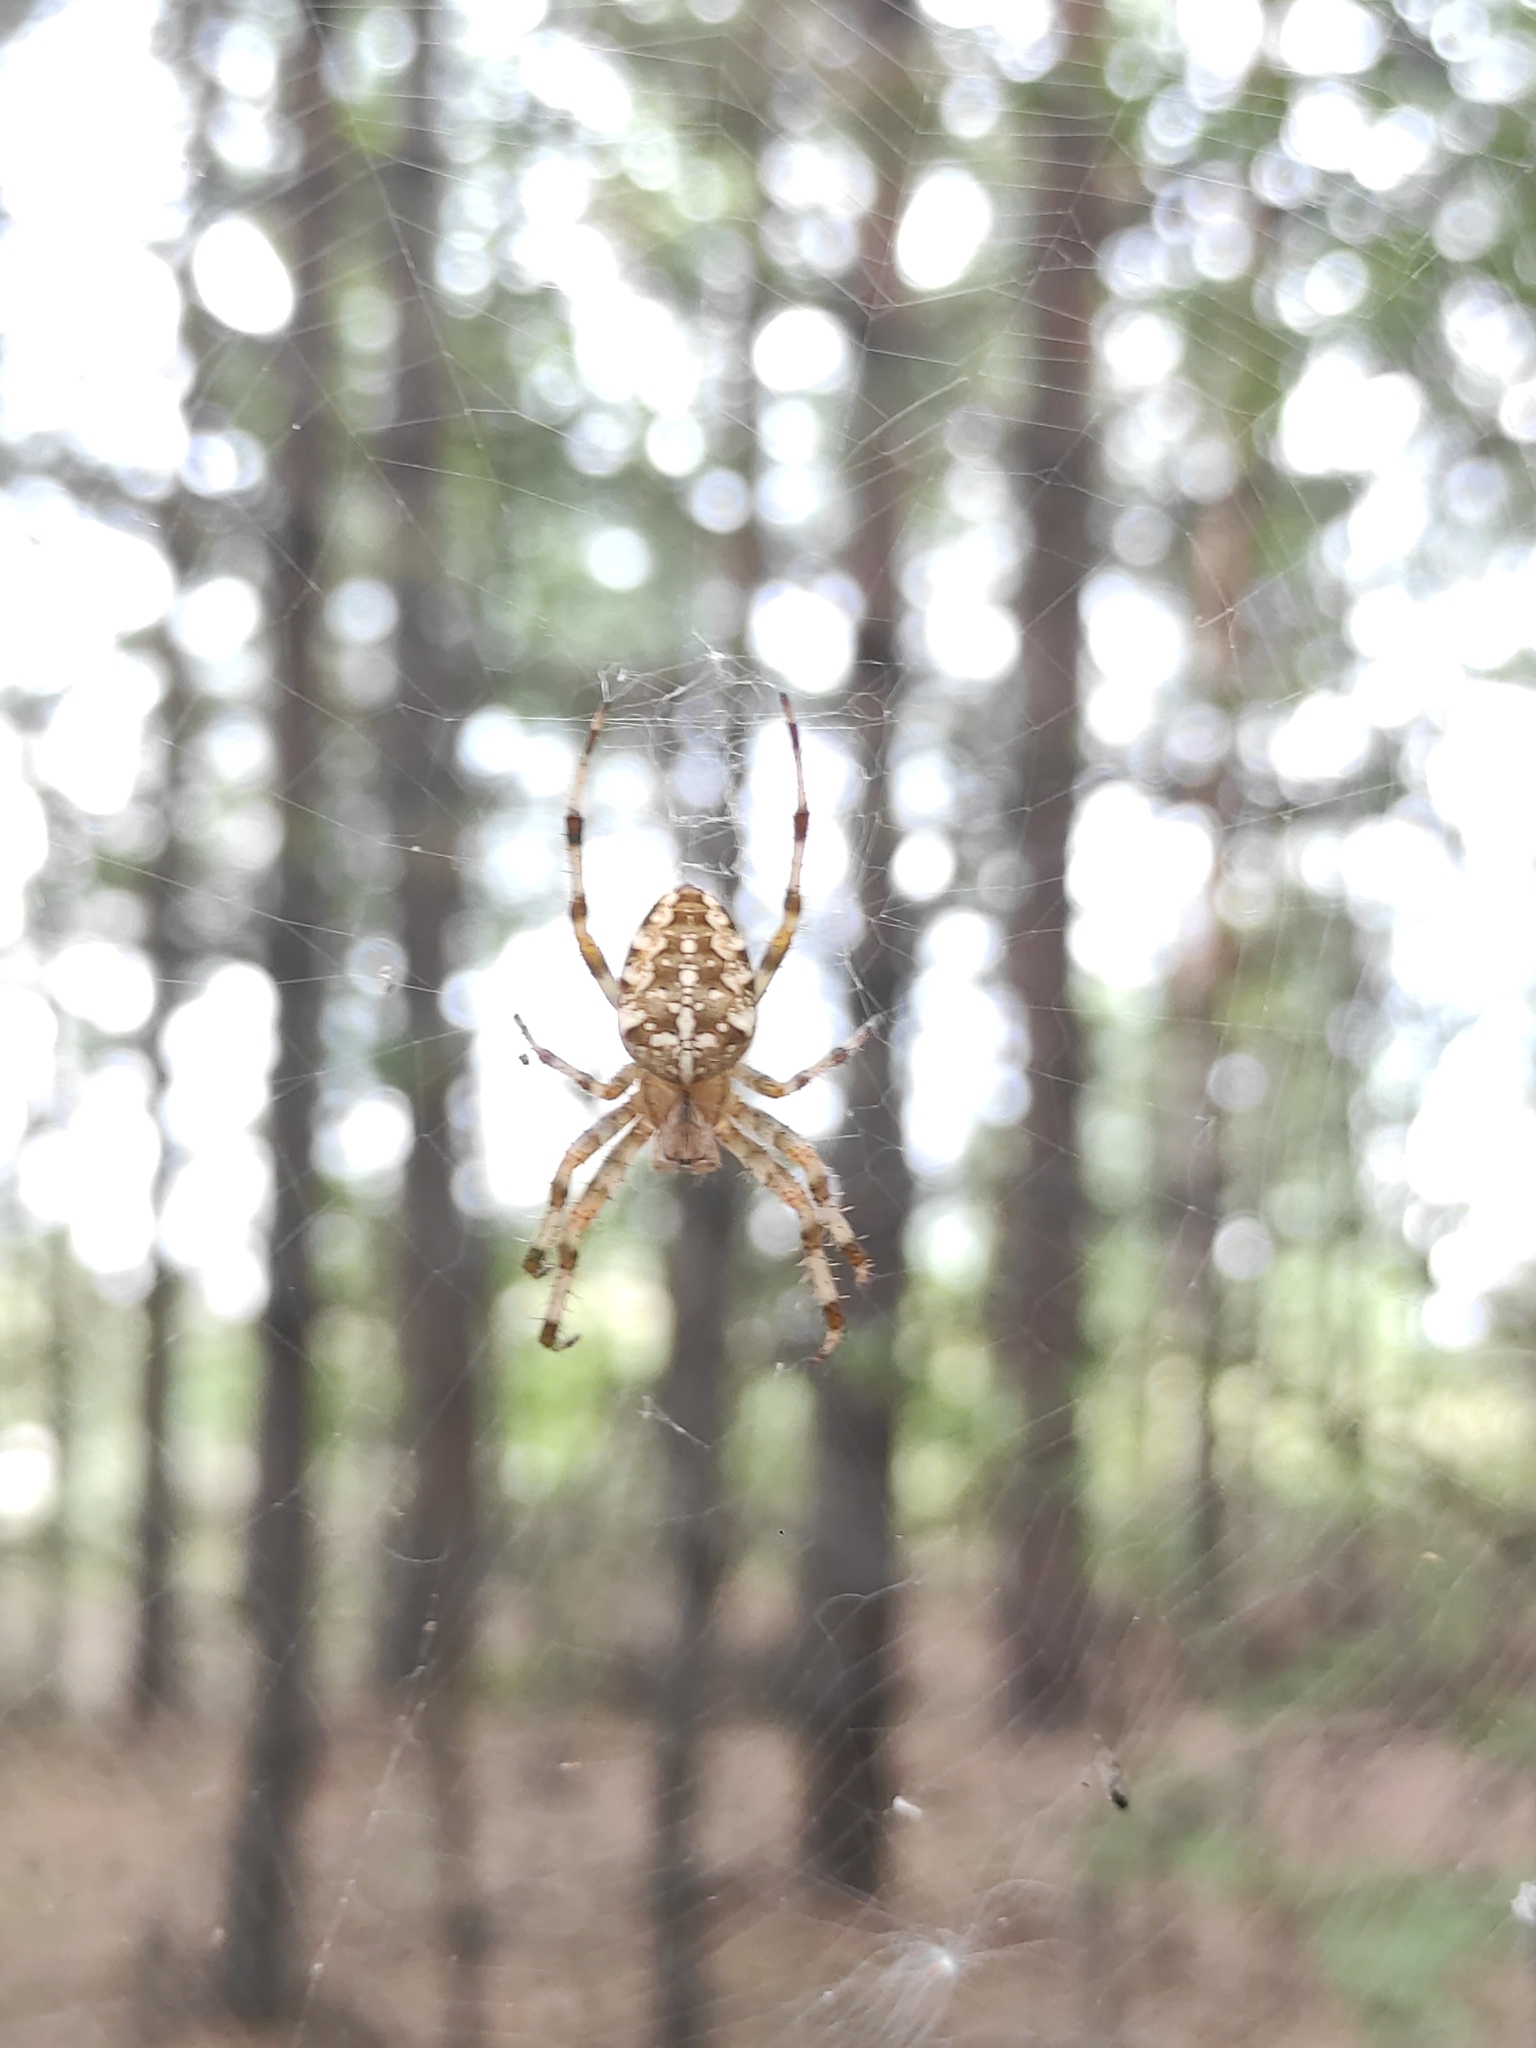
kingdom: Animalia
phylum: Arthropoda
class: Arachnida
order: Araneae
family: Araneidae
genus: Araneus
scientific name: Araneus diadematus
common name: Cross orbweaver
